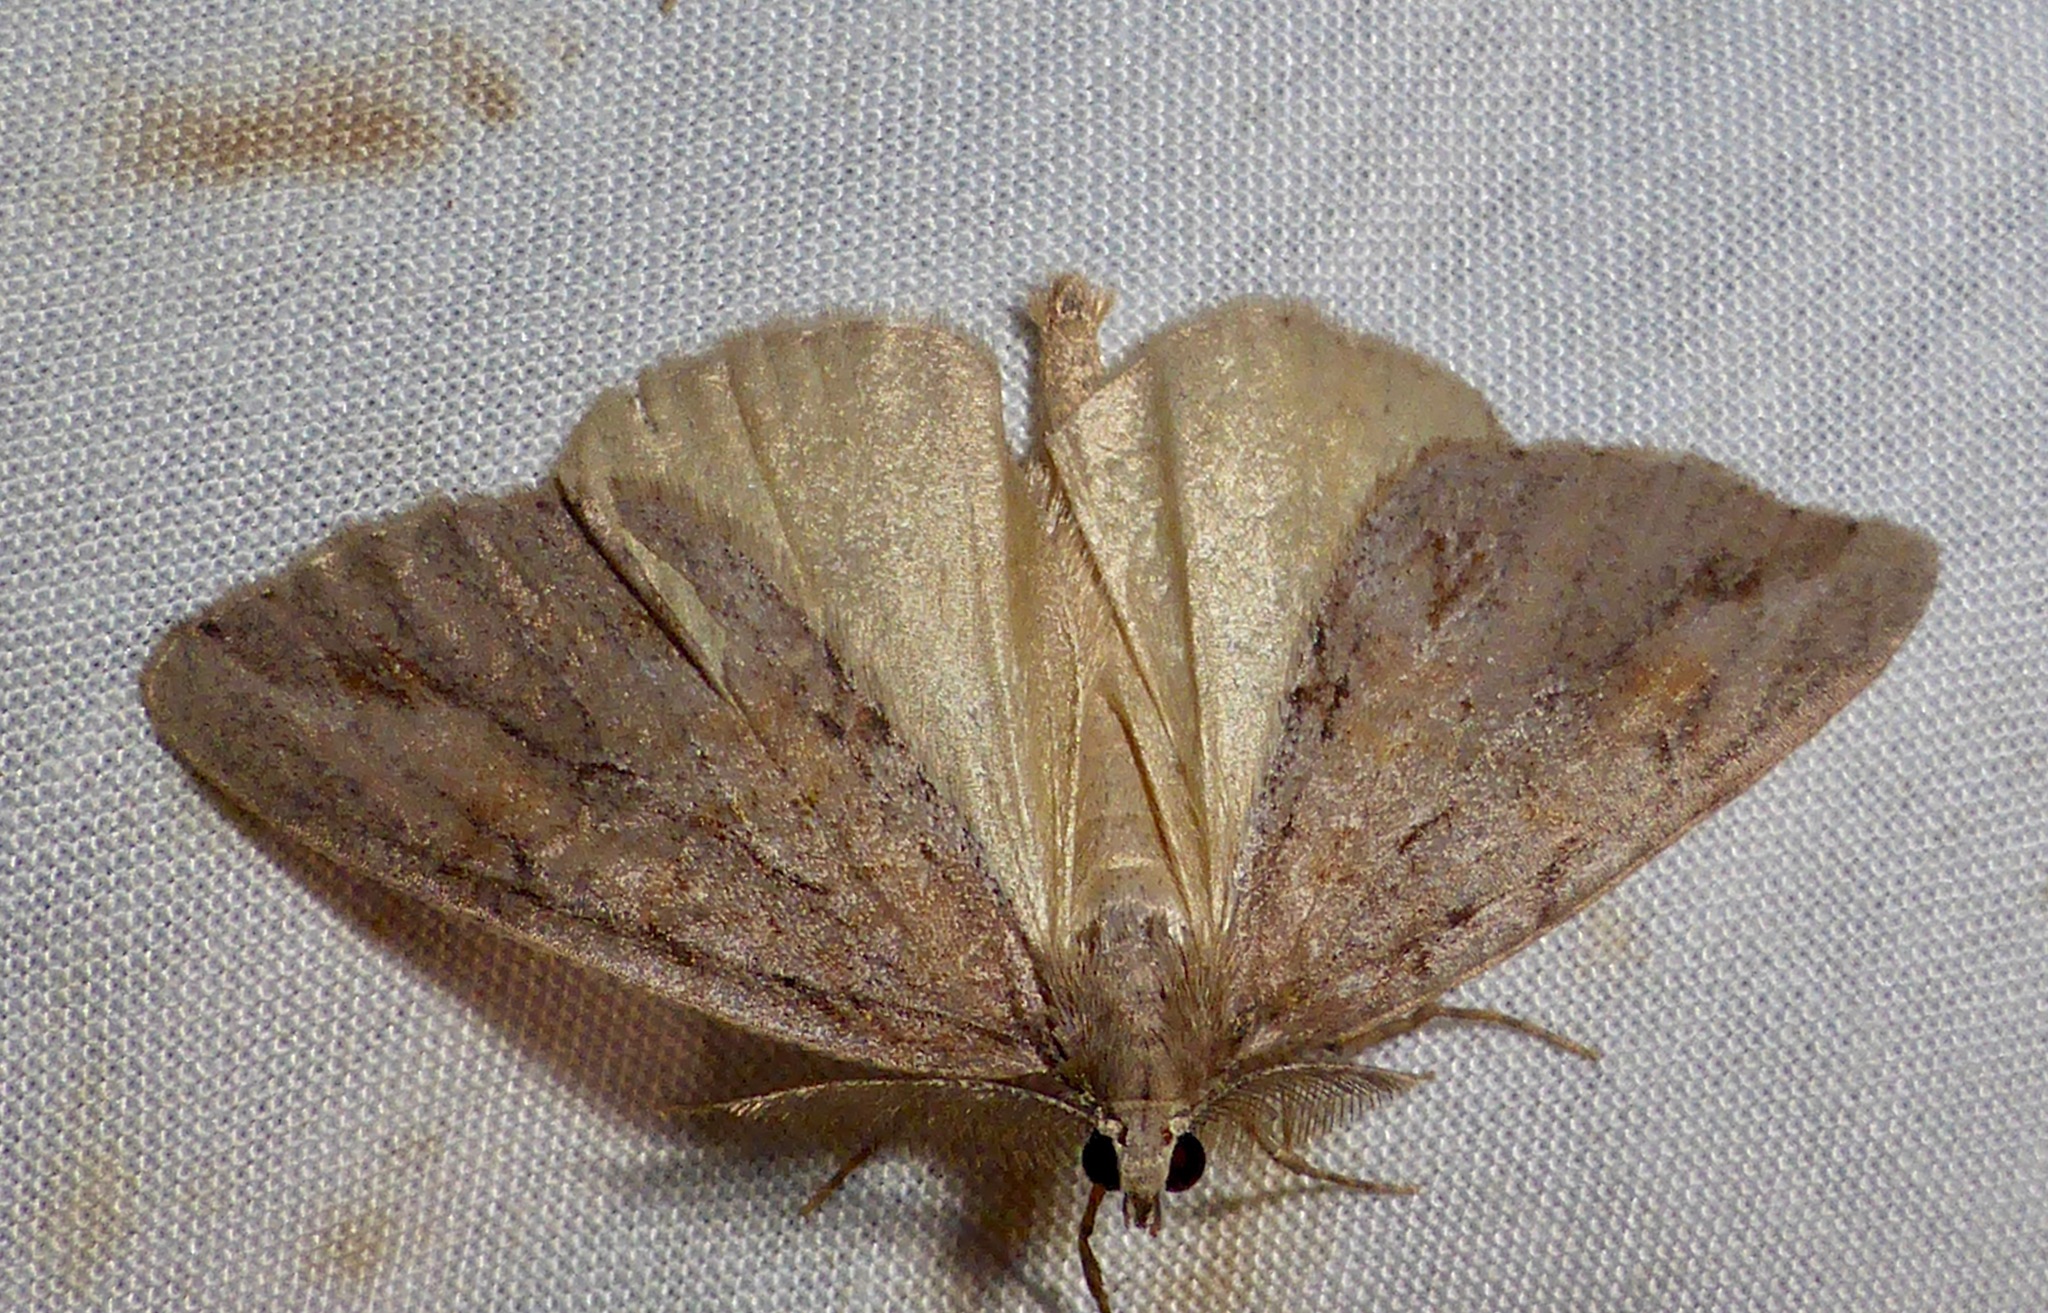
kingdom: Animalia
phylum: Arthropoda
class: Insecta
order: Lepidoptera
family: Geometridae
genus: Pseudocoremia
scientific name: Pseudocoremia lupinata
